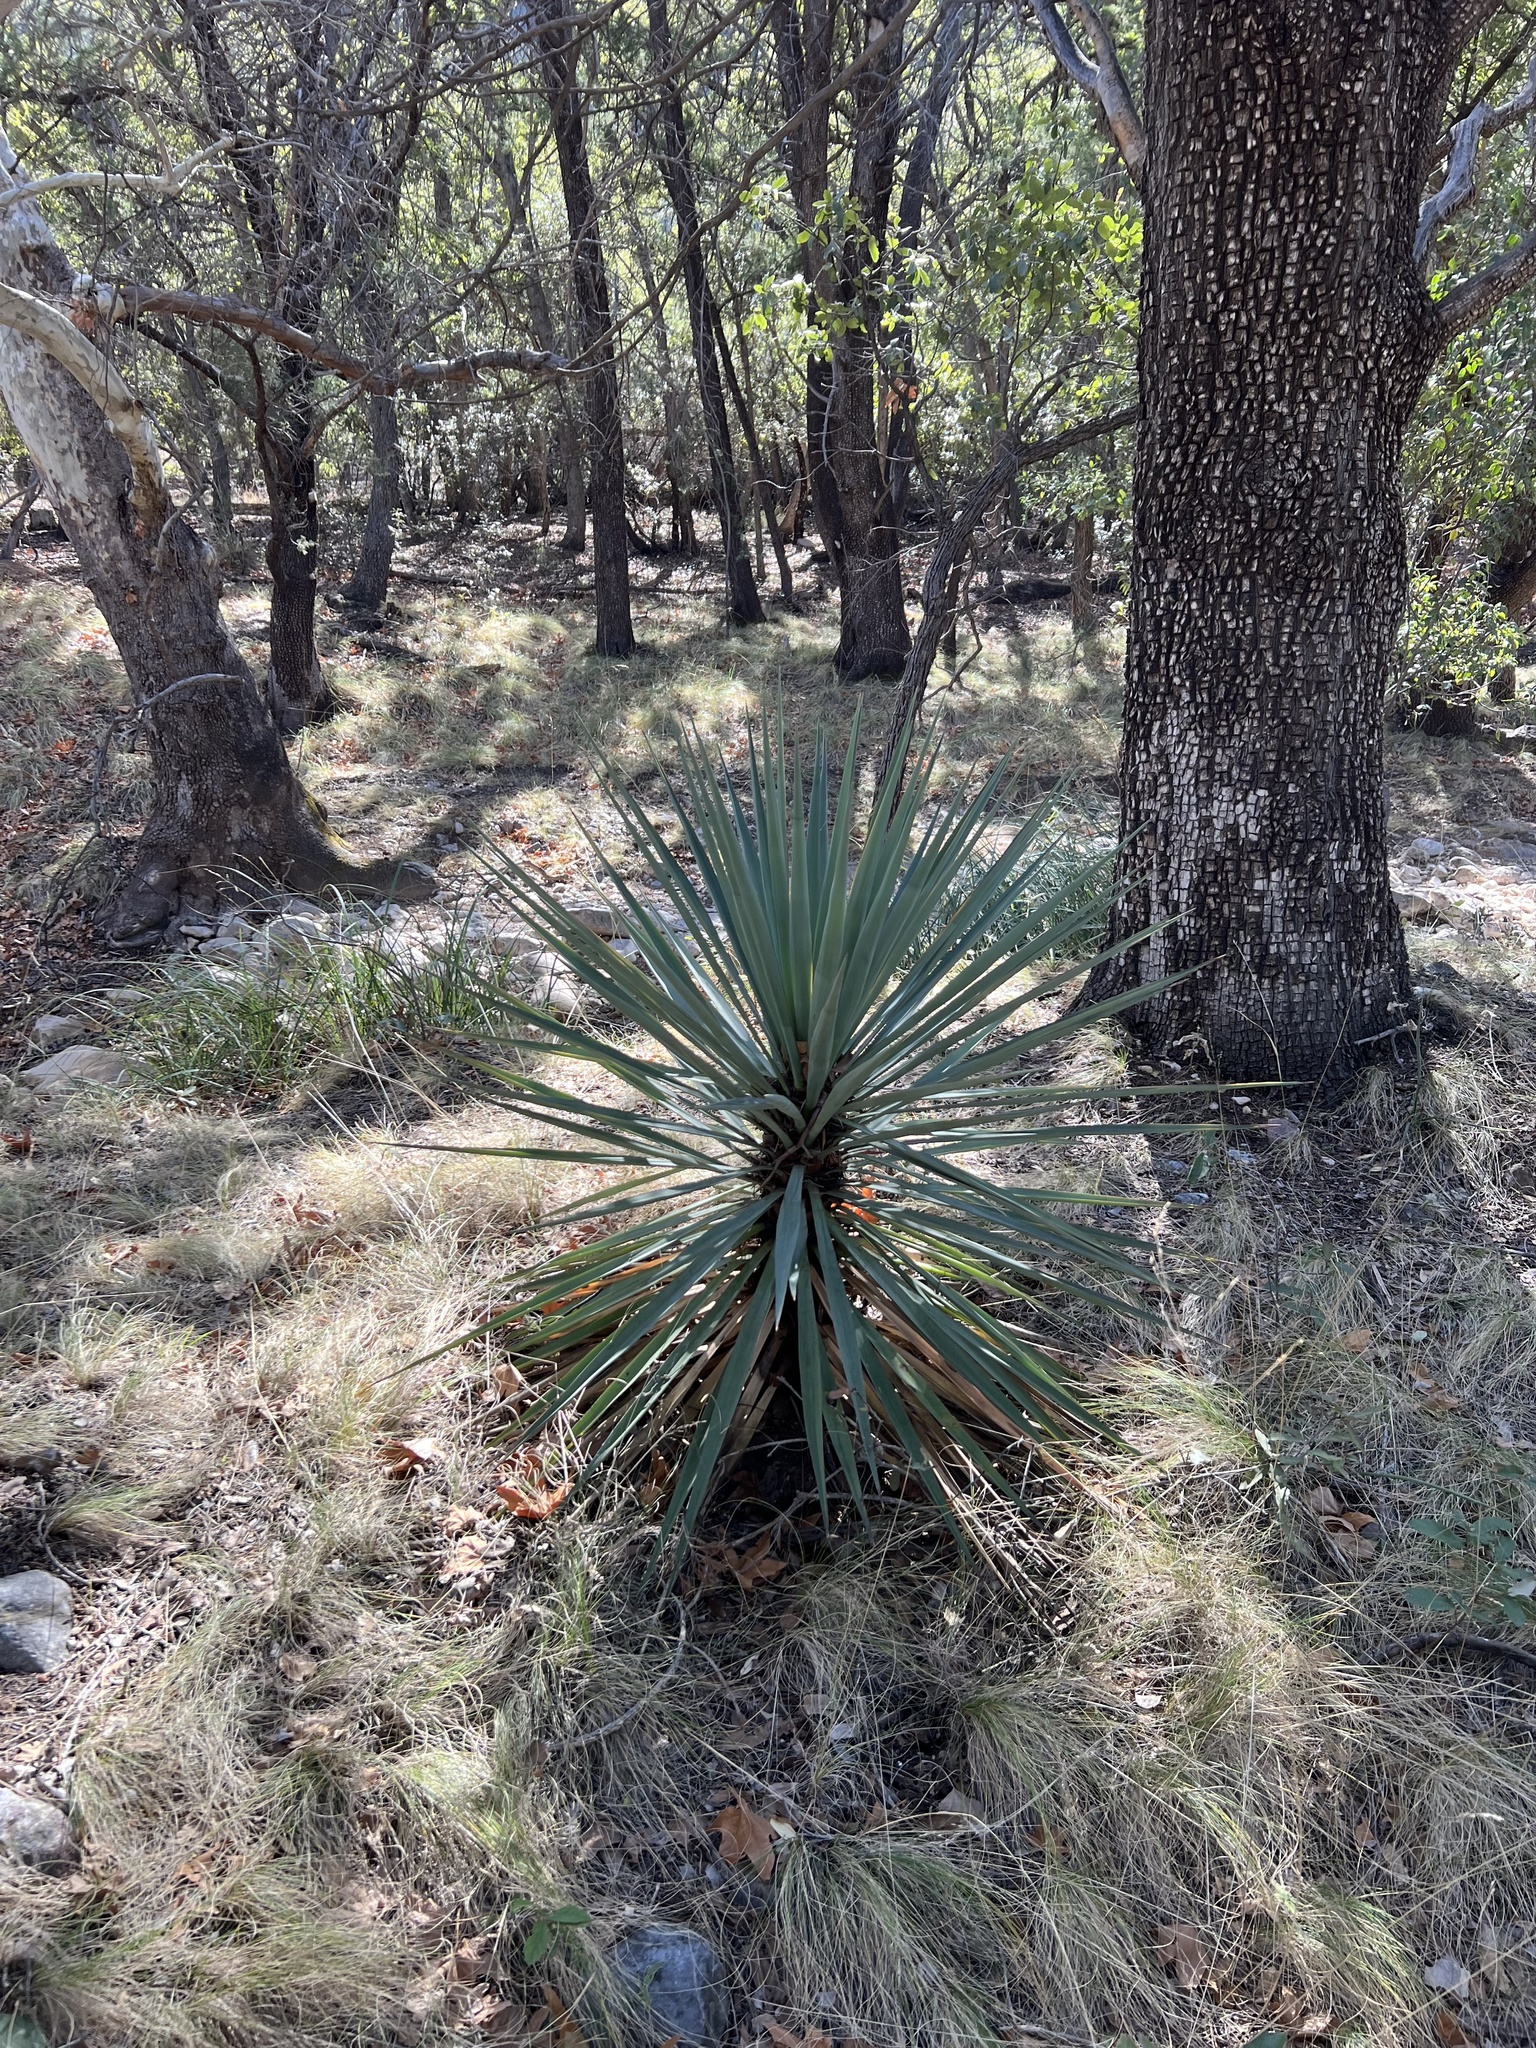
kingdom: Plantae
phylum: Tracheophyta
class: Liliopsida
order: Asparagales
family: Asparagaceae
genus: Yucca
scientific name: Yucca schottii
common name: Hoary yucca
